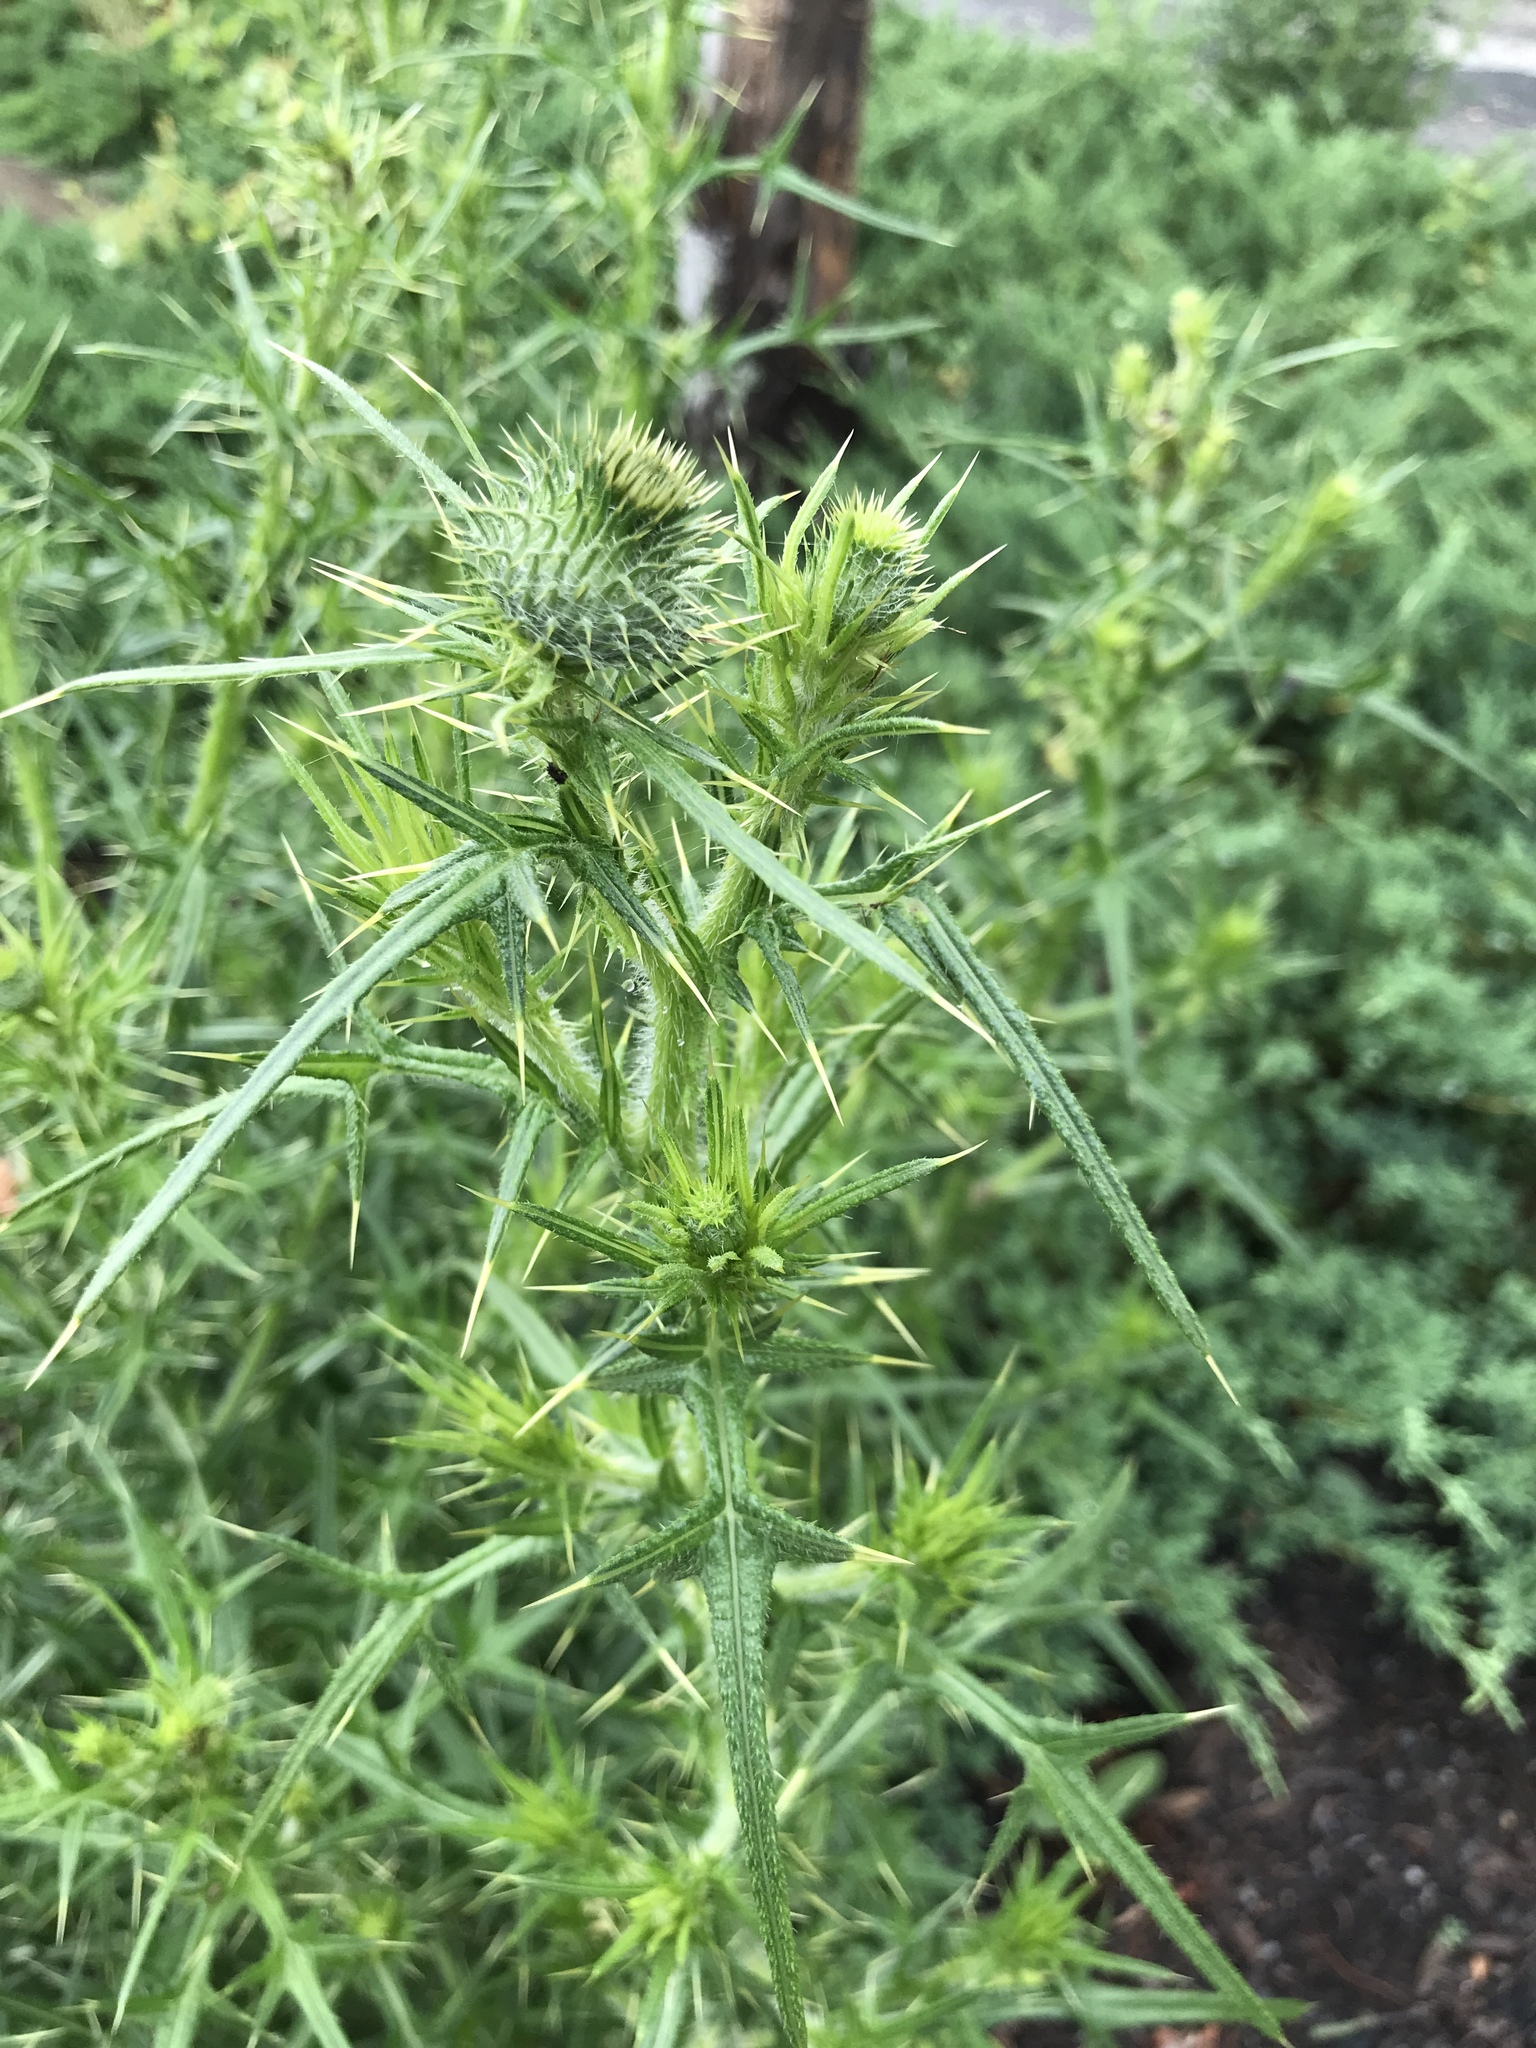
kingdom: Plantae
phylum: Tracheophyta
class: Magnoliopsida
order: Asterales
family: Asteraceae
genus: Cirsium
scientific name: Cirsium vulgare
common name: Bull thistle
